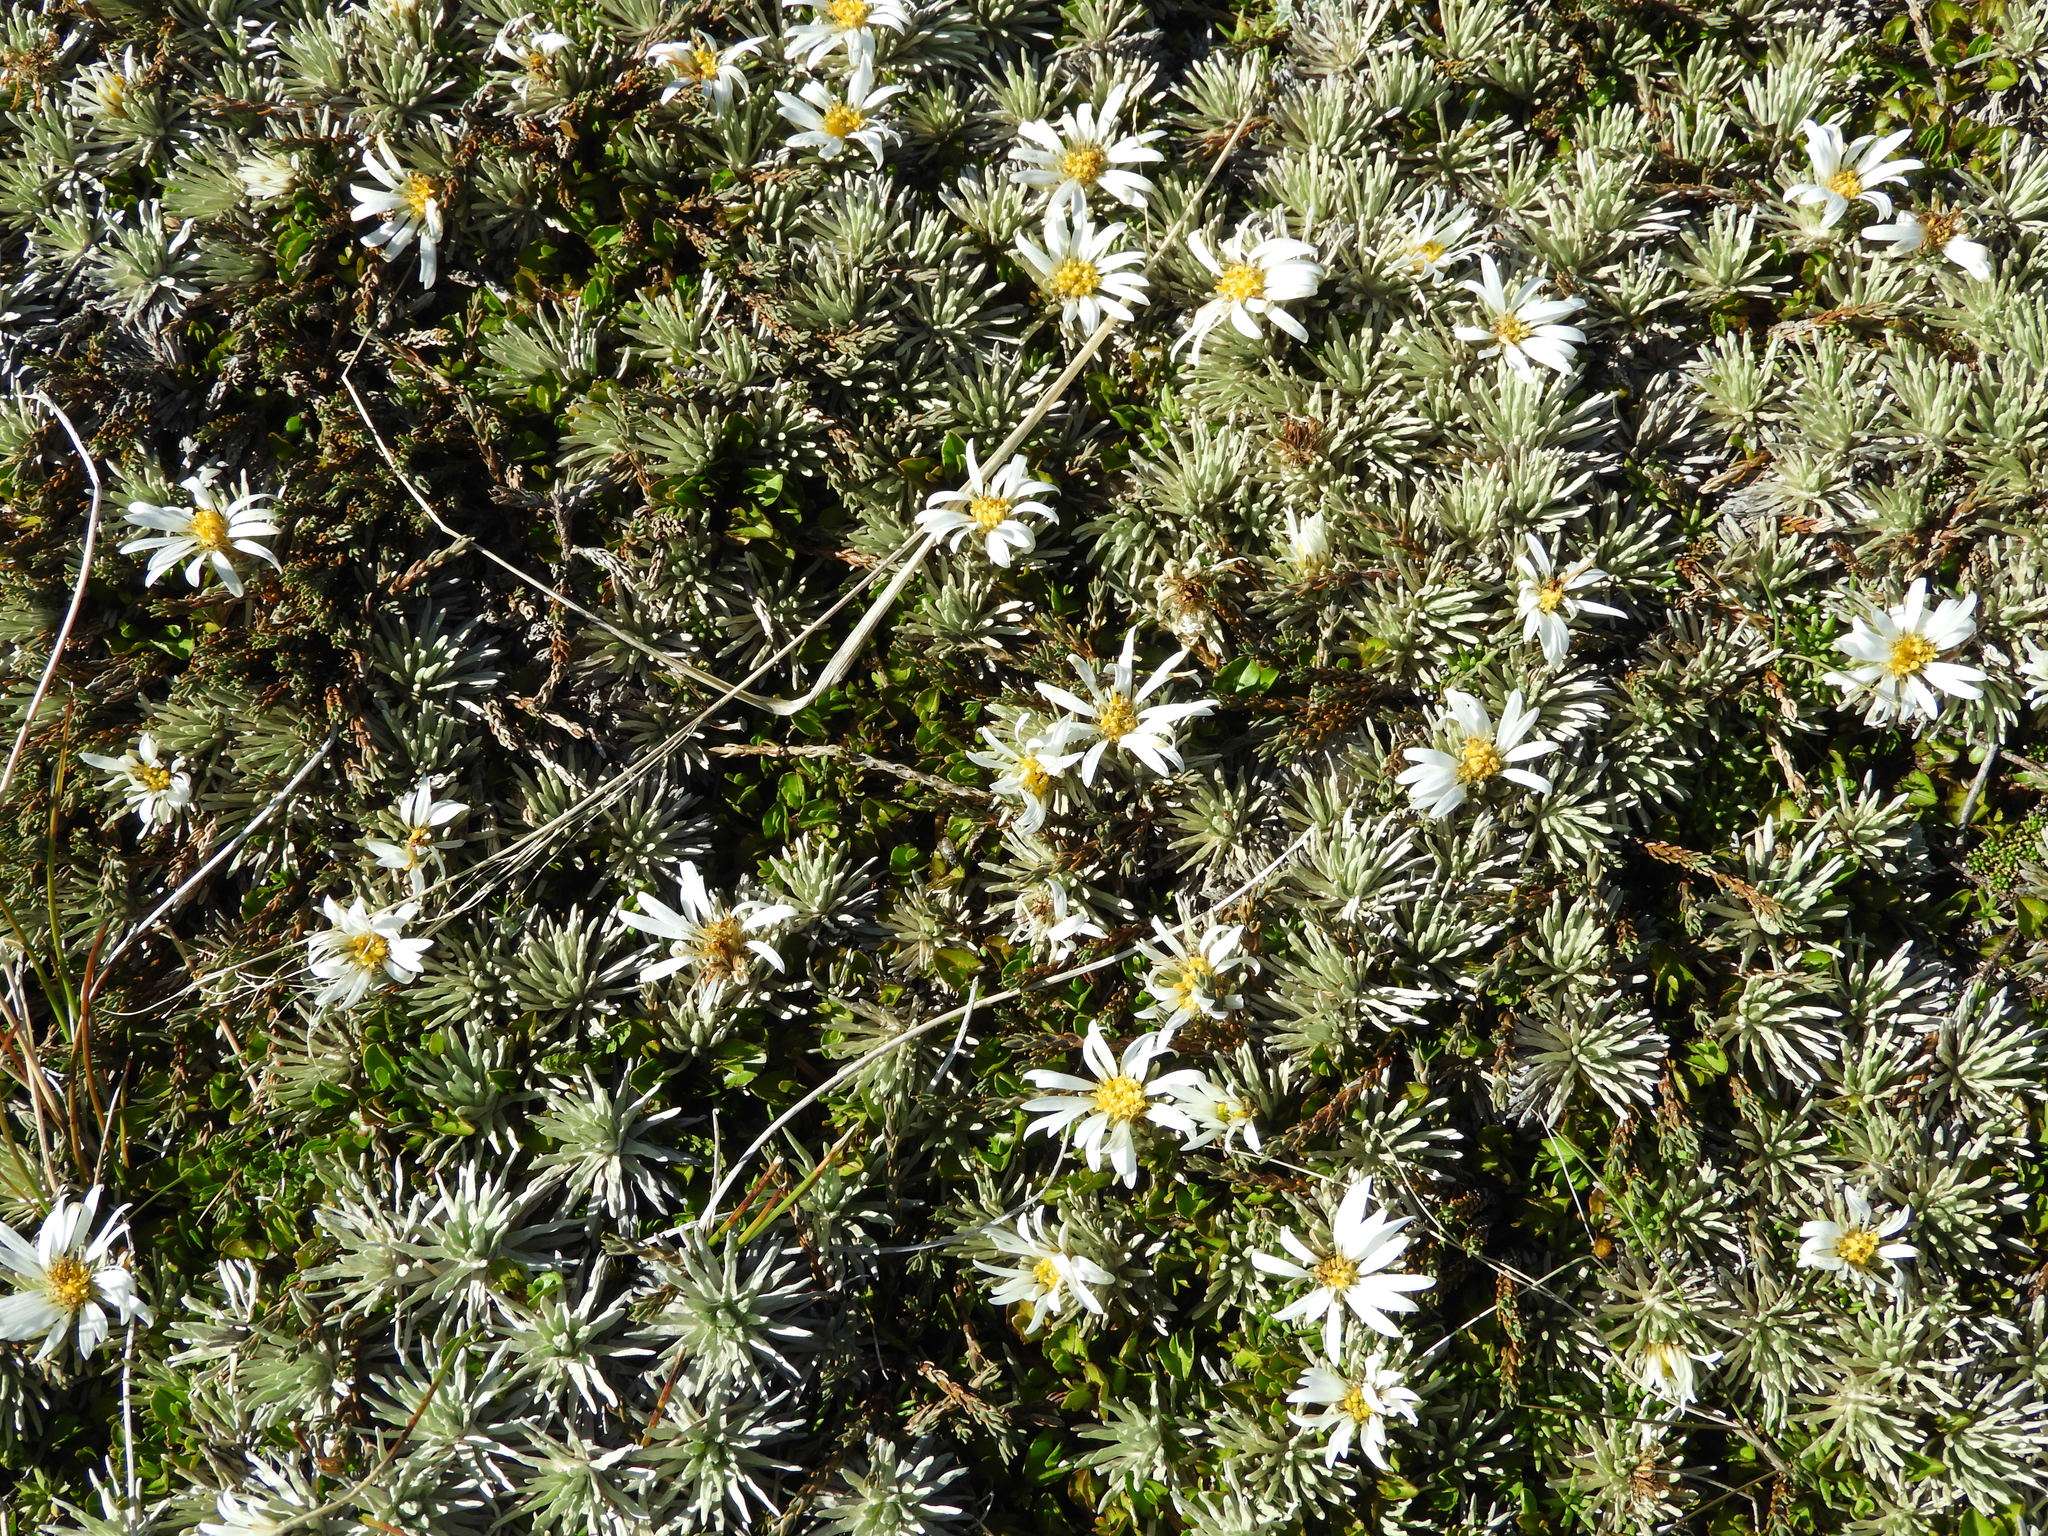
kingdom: Plantae
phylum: Tracheophyta
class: Magnoliopsida
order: Asterales
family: Asteraceae
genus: Celmisia
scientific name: Celmisia sessiliflora
